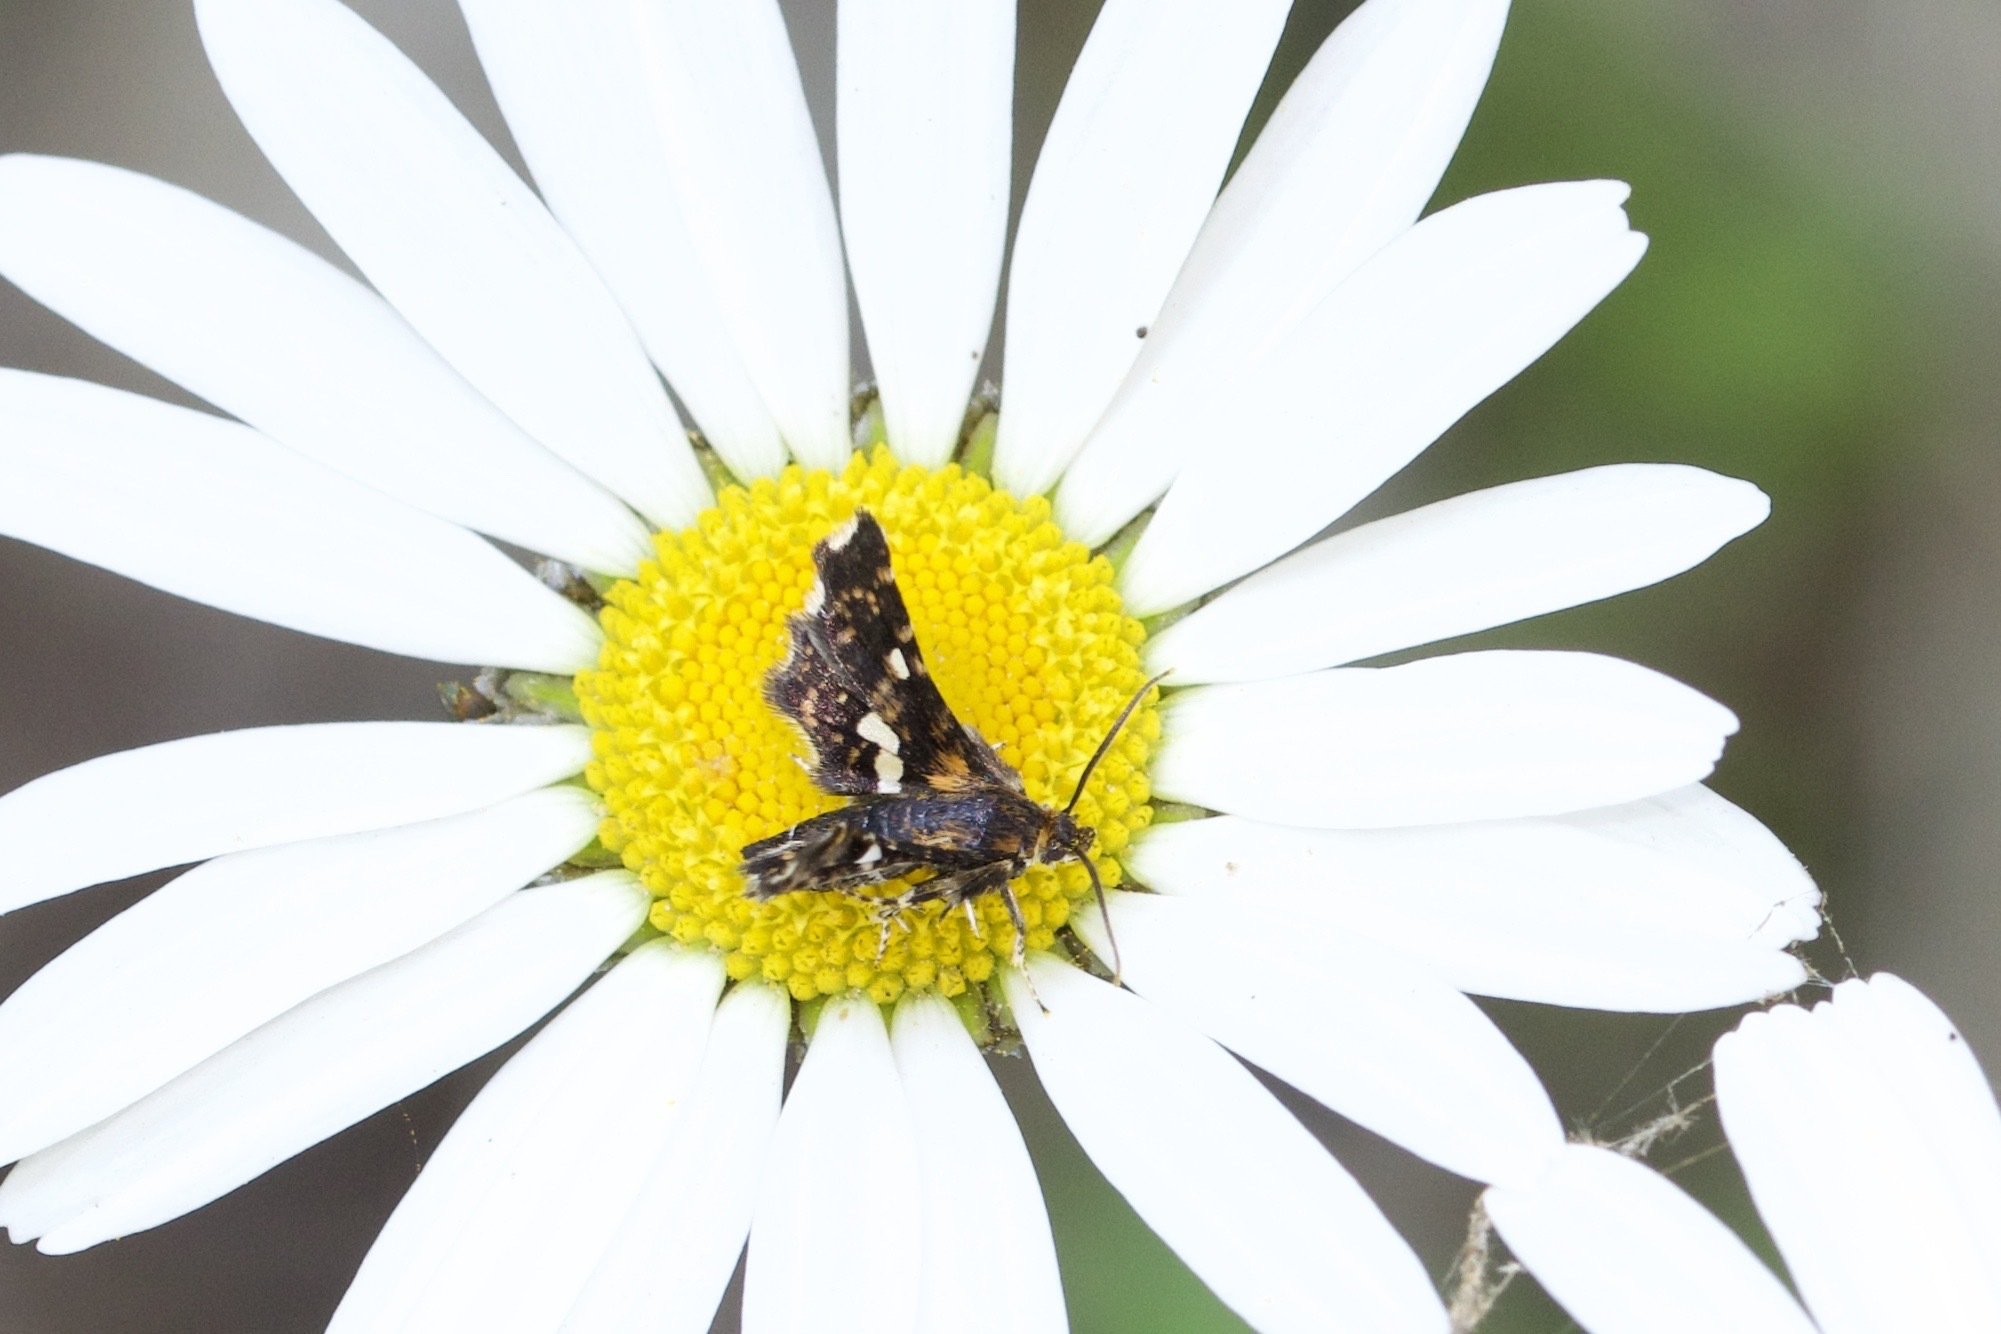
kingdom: Animalia
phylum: Arthropoda
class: Insecta
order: Lepidoptera
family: Thyrididae
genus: Thyris
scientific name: Thyris maculata
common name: Spotted thyris moth
